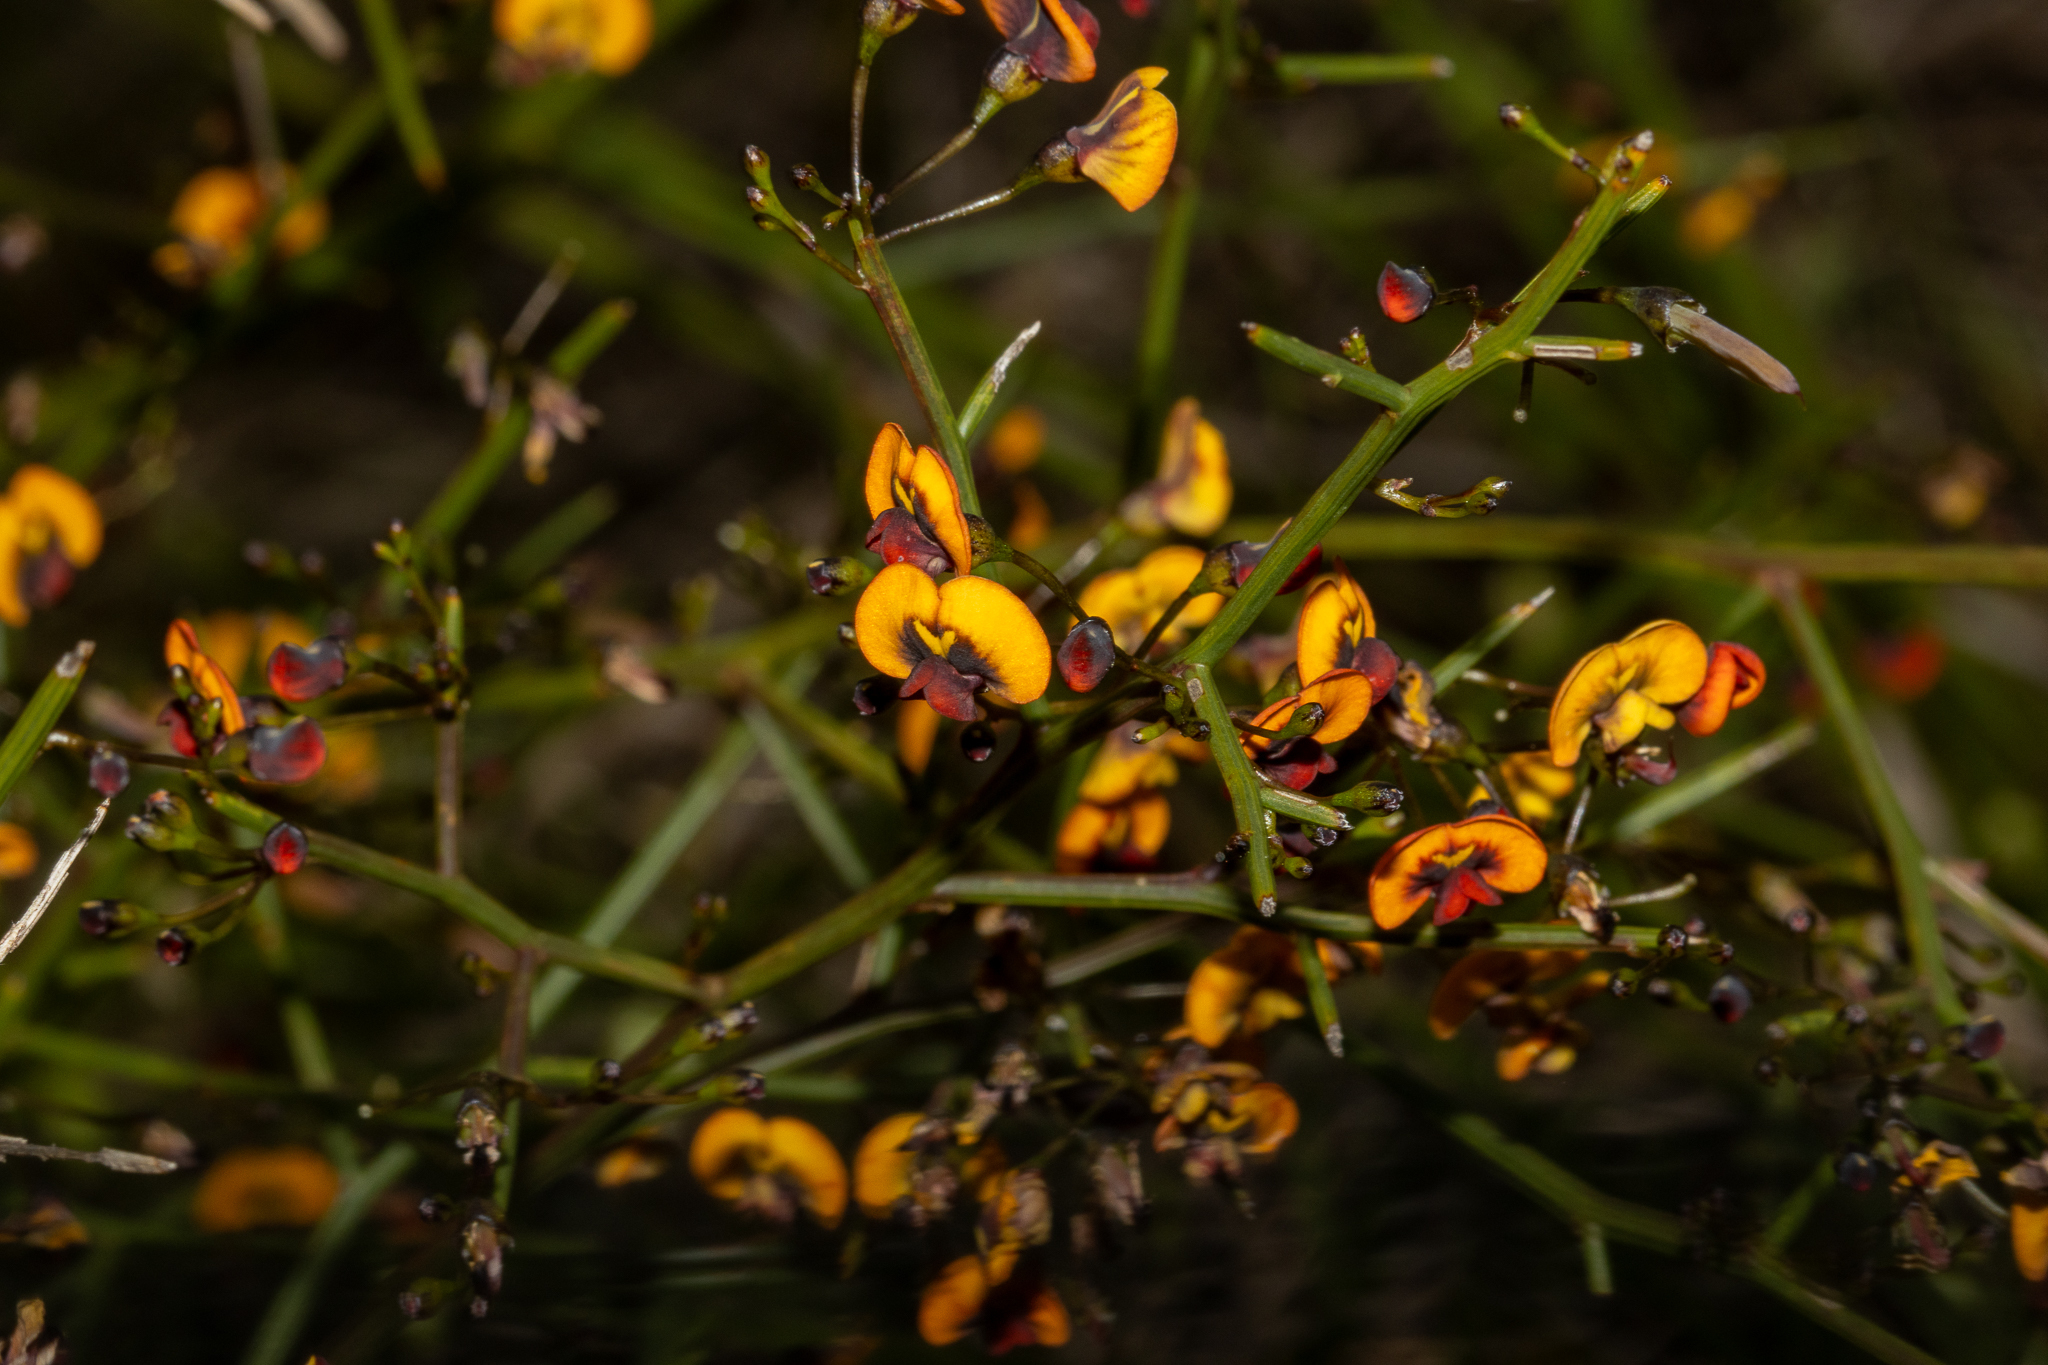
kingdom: Plantae
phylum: Tracheophyta
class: Magnoliopsida
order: Fabales
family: Fabaceae
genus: Daviesia
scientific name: Daviesia divaricata
